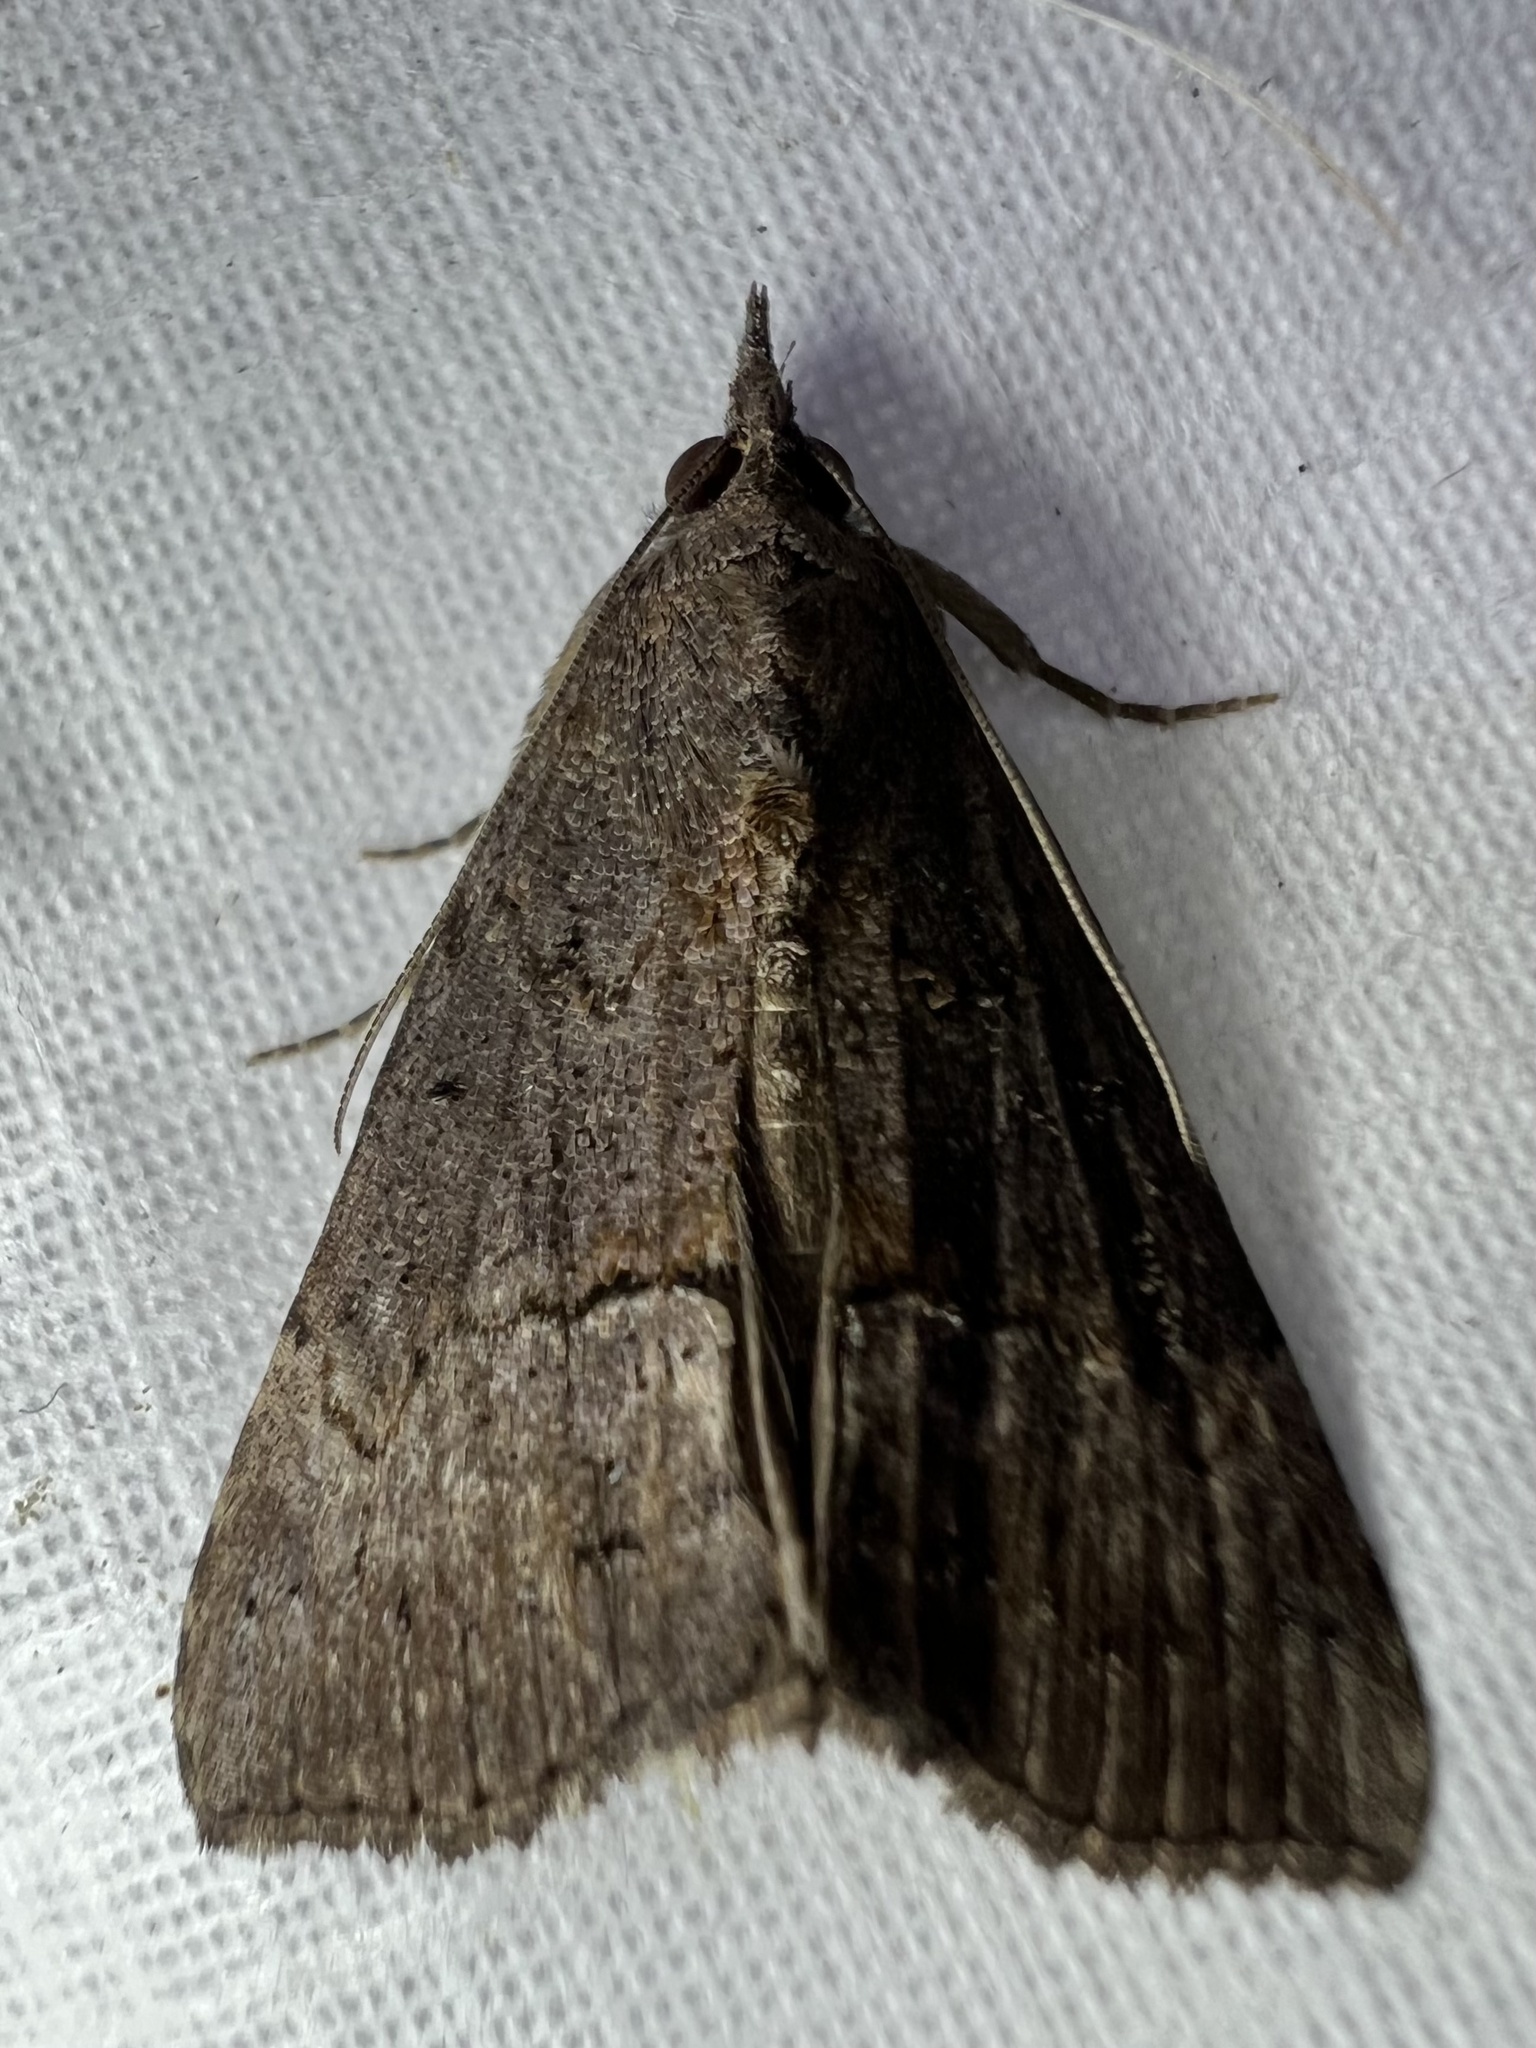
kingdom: Animalia
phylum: Arthropoda
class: Insecta
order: Lepidoptera
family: Erebidae
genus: Hypena
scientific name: Hypena scabra
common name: Green cloverworm
